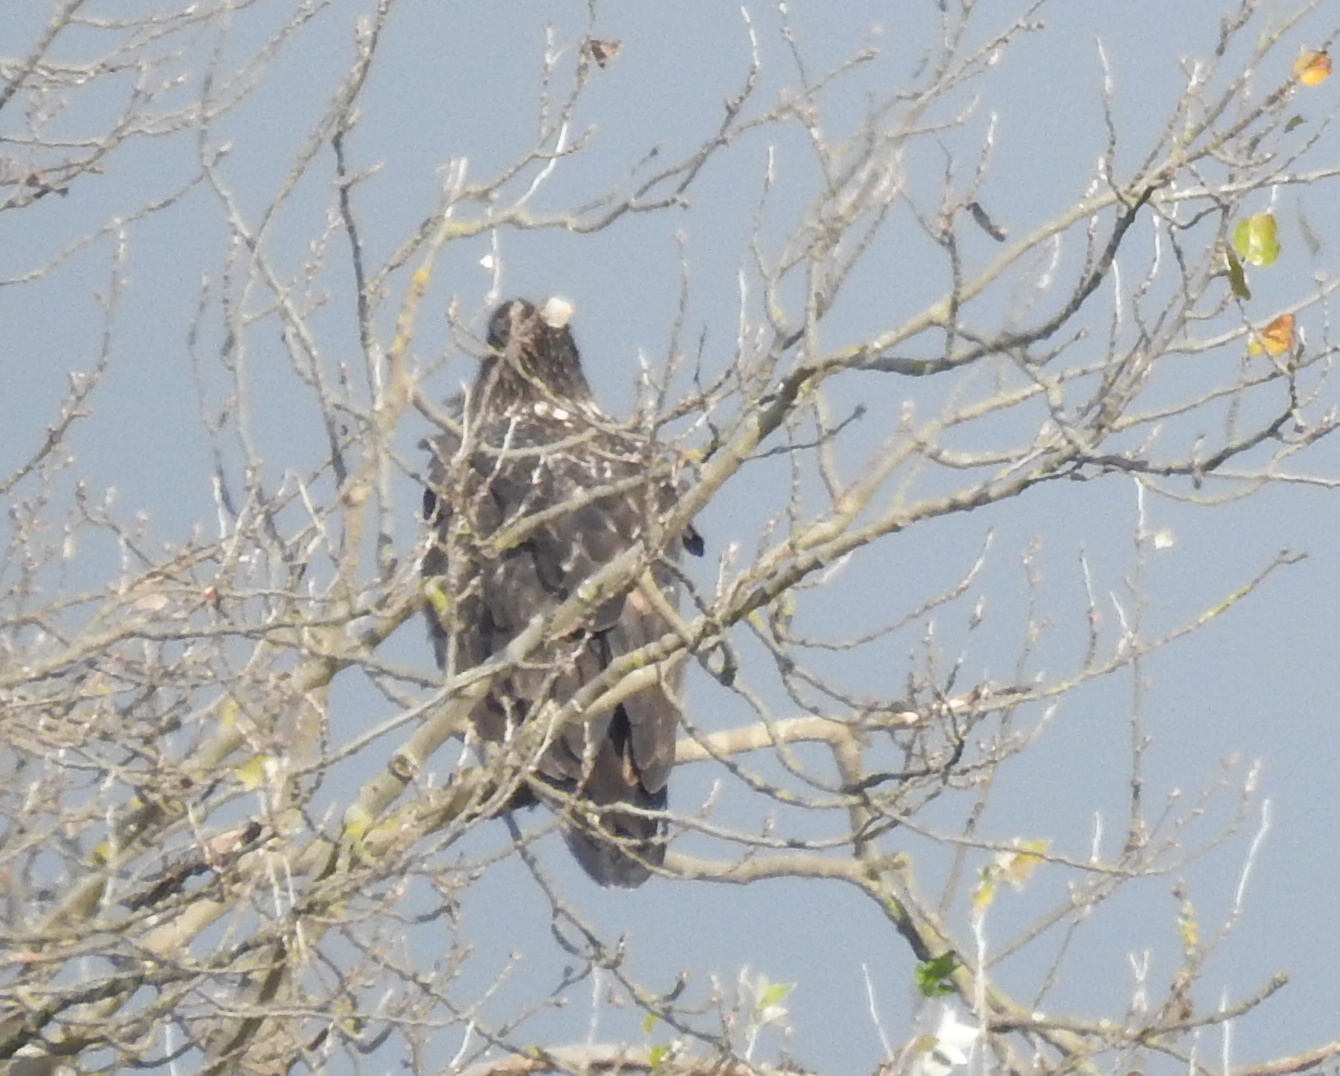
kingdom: Animalia
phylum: Chordata
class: Aves
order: Accipitriformes
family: Accipitridae
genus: Haliaeetus
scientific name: Haliaeetus leucocephalus
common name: Bald eagle
